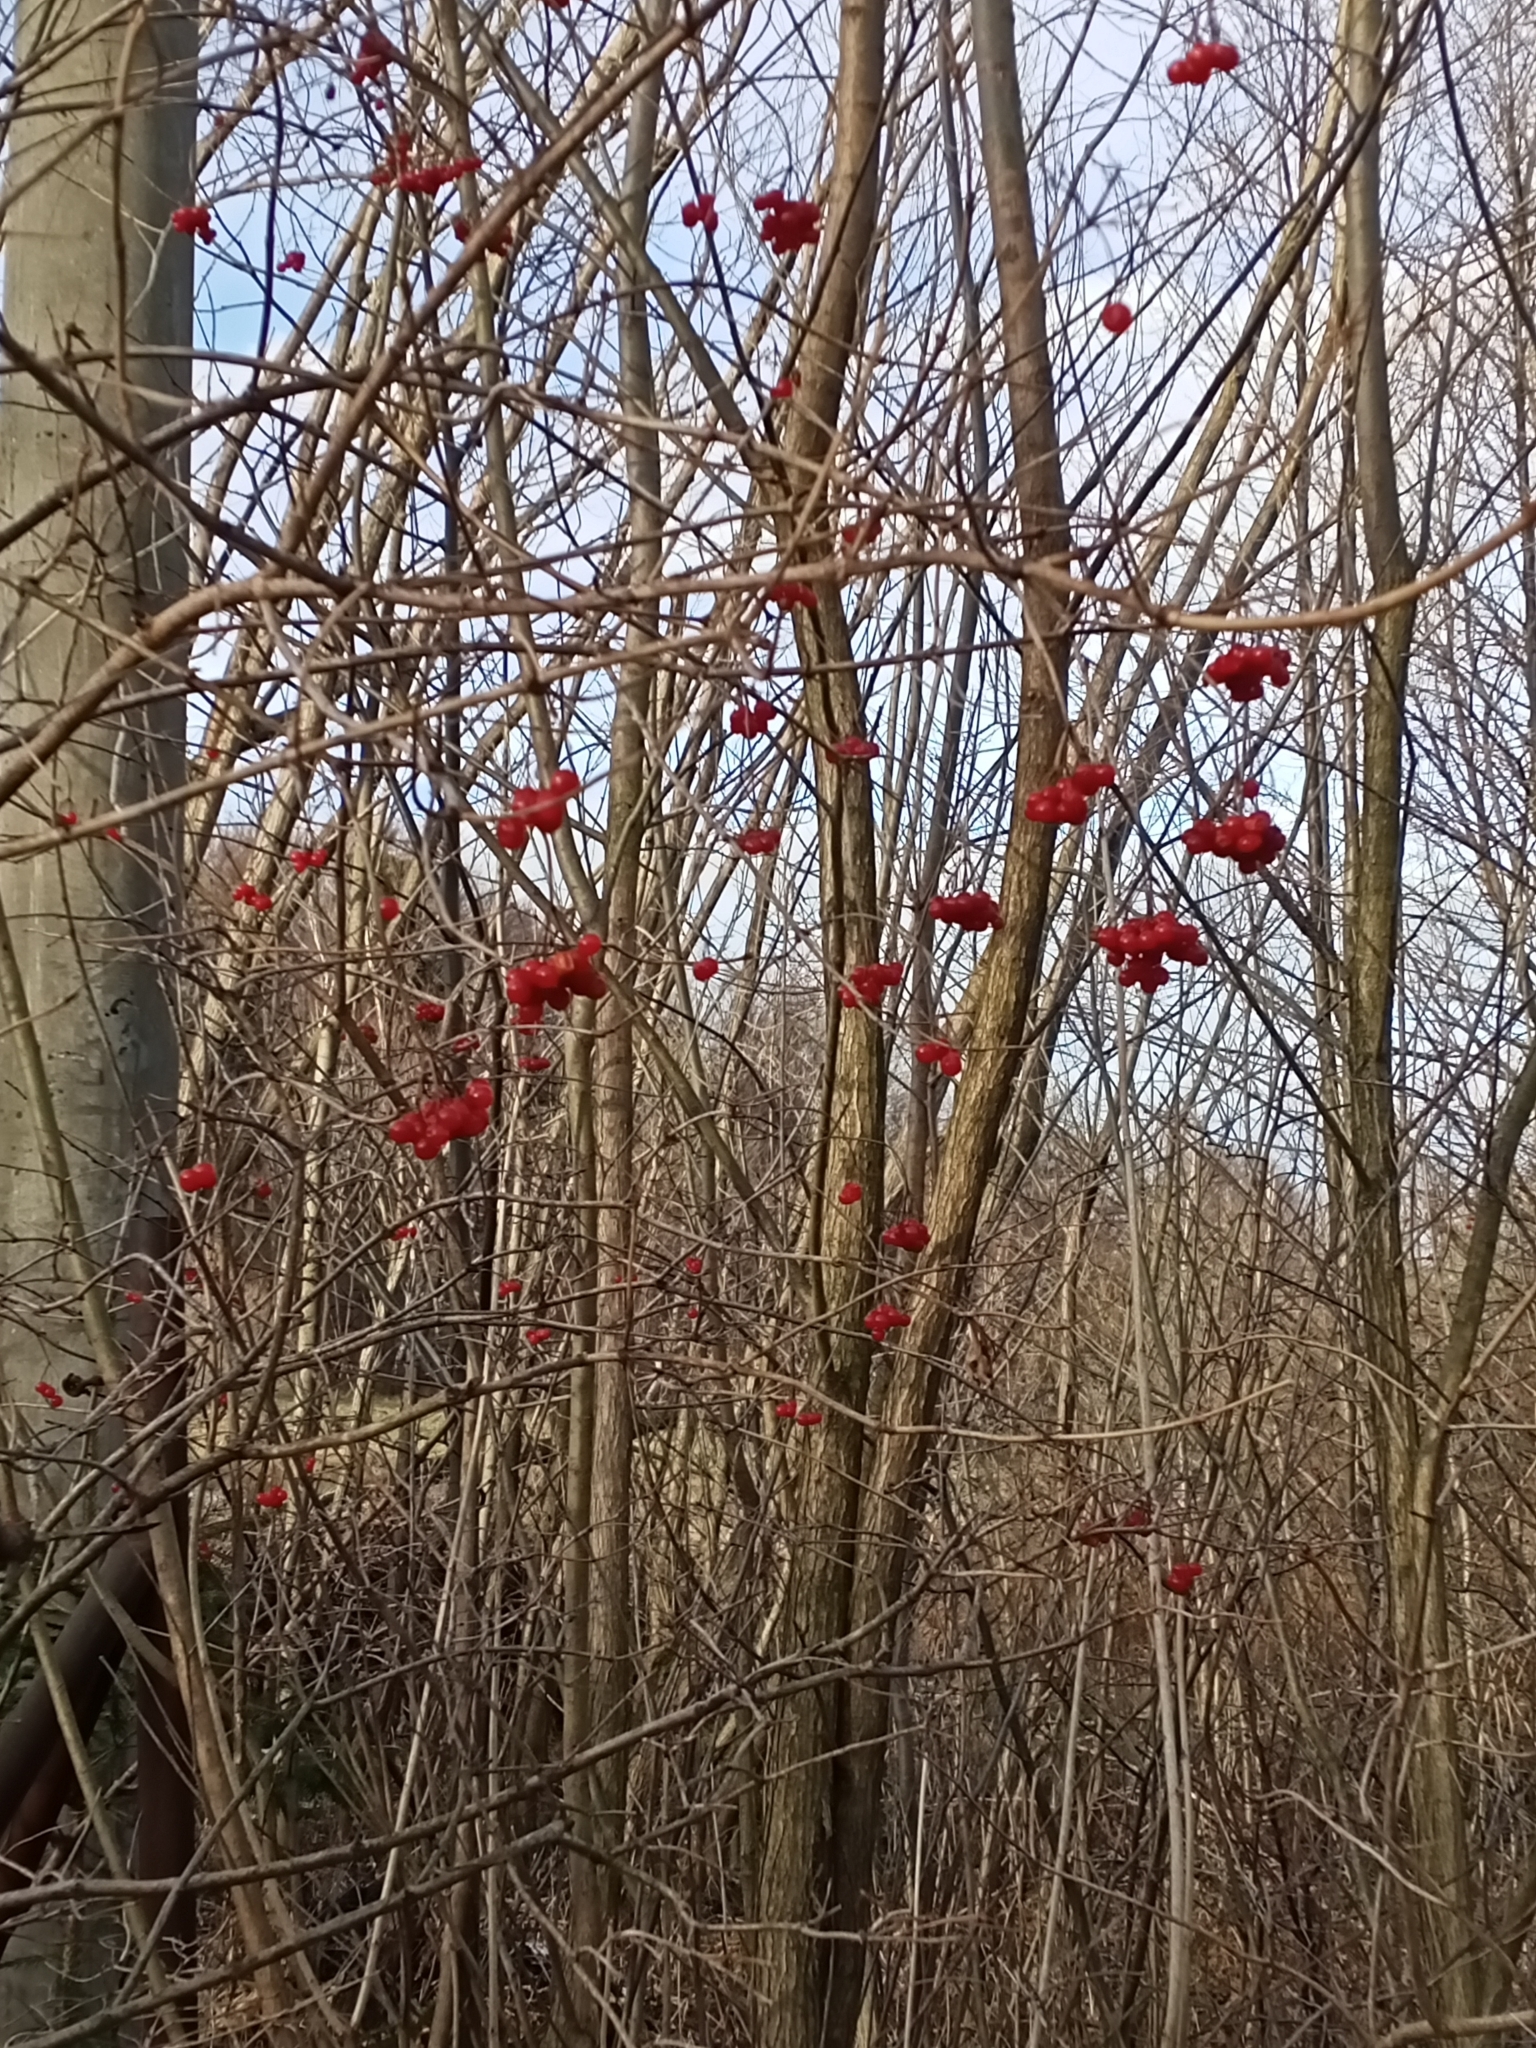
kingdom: Plantae
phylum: Tracheophyta
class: Magnoliopsida
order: Dipsacales
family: Viburnaceae
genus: Viburnum
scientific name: Viburnum opulus
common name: Guelder-rose
